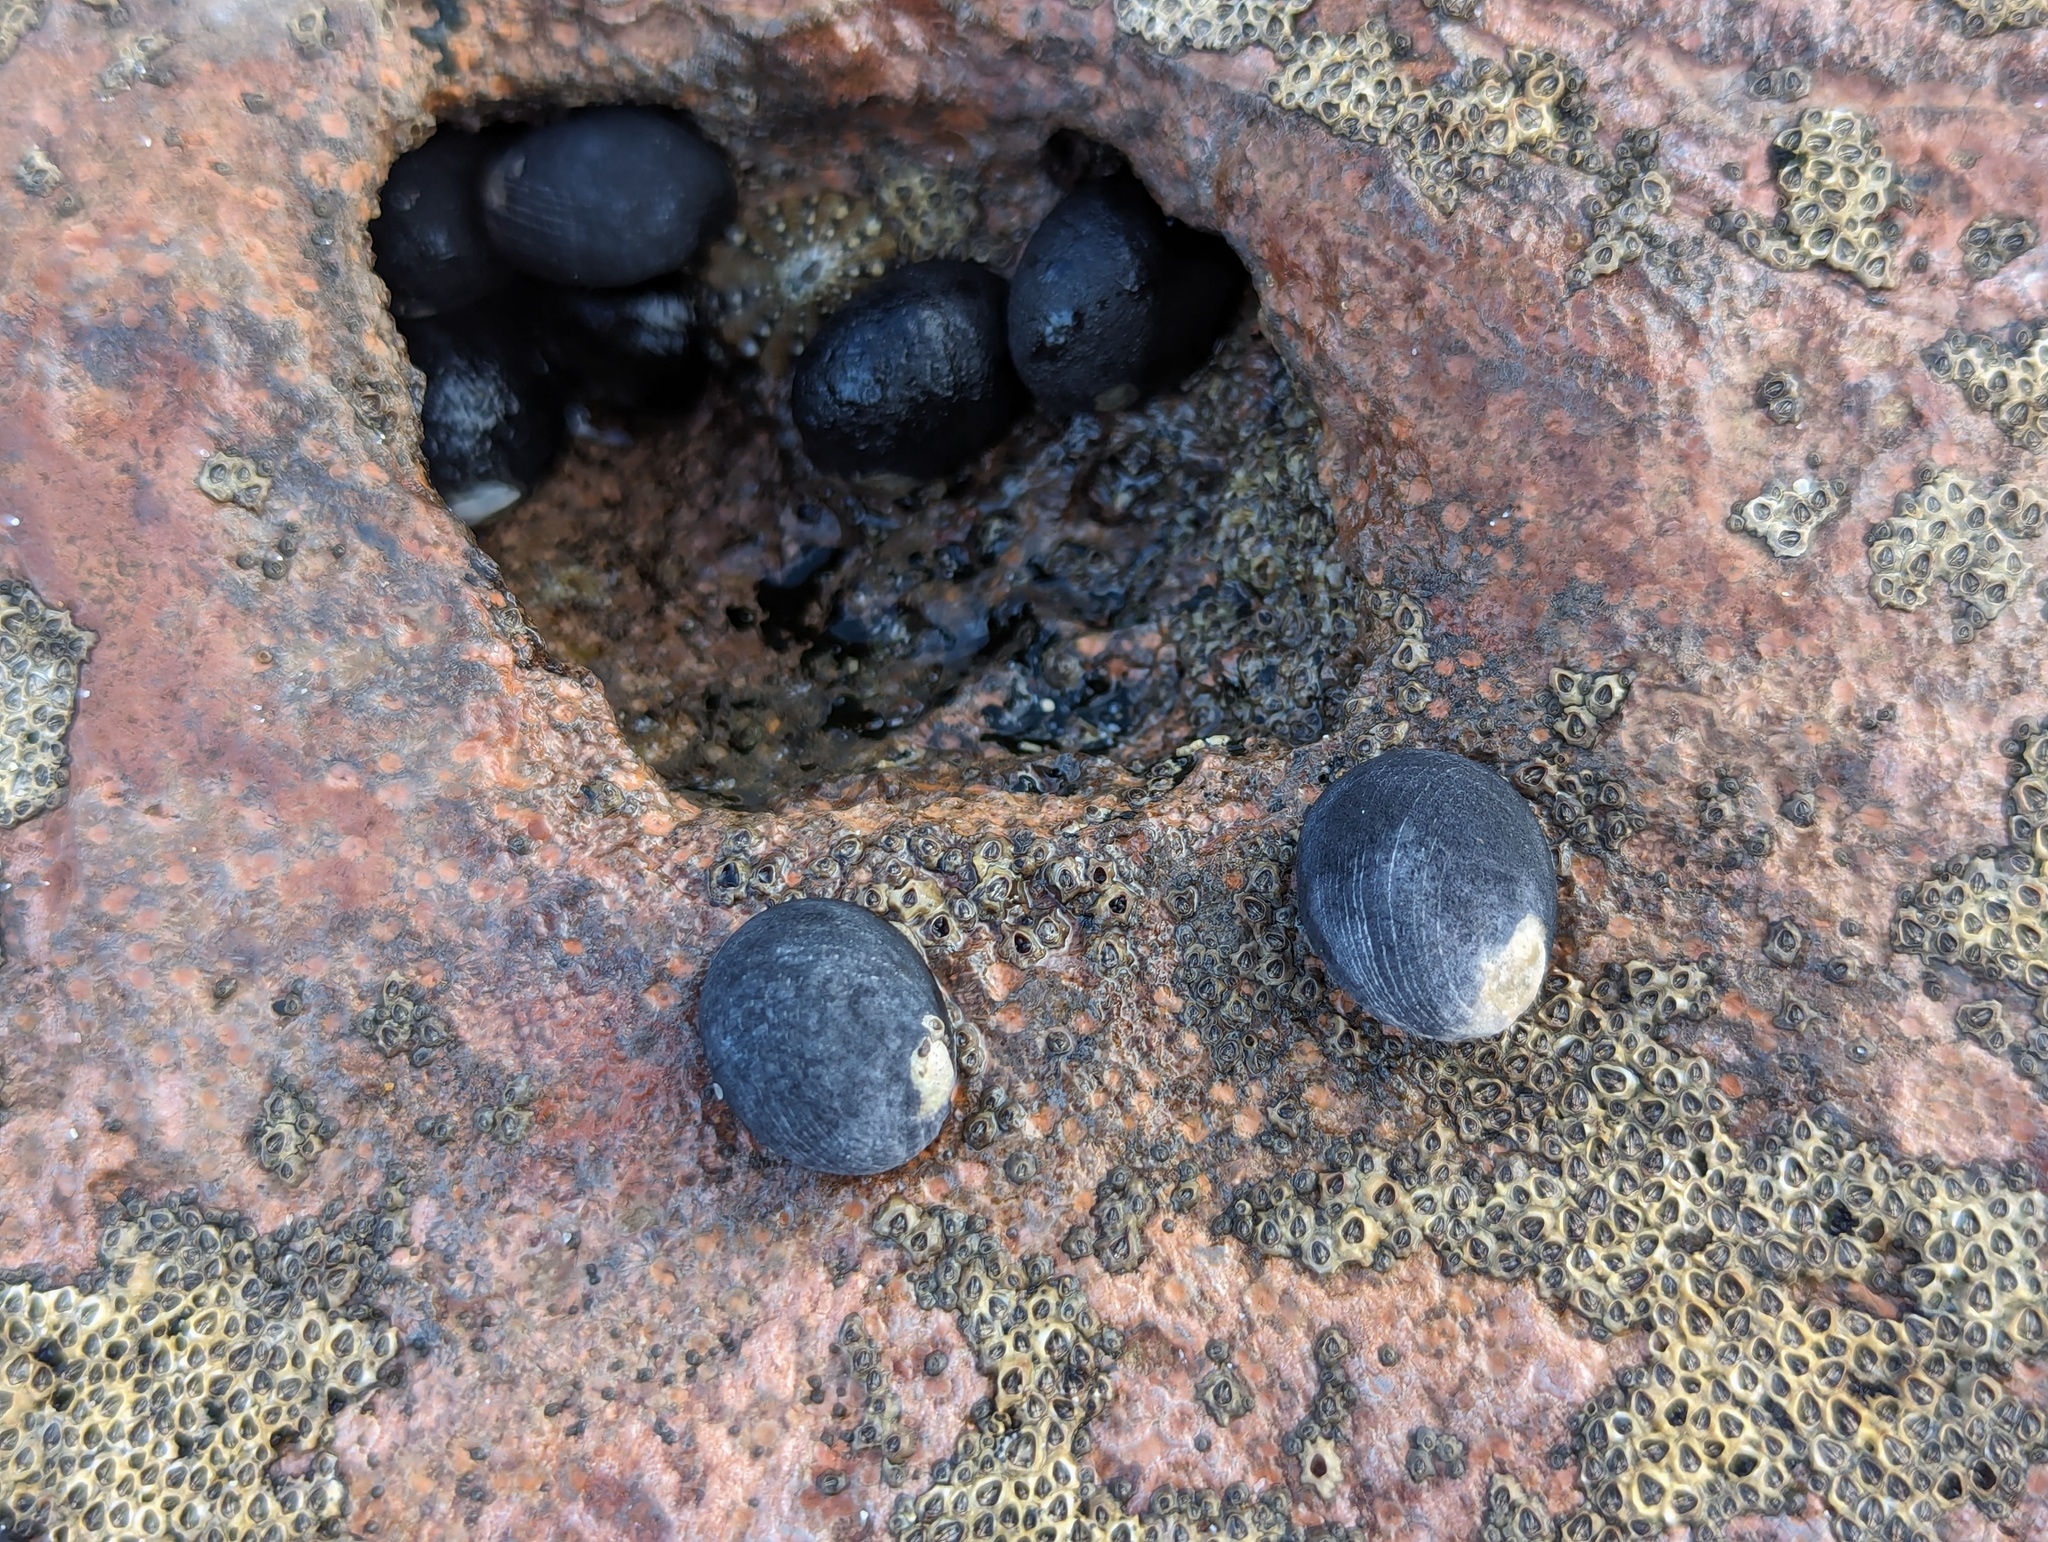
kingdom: Animalia
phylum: Mollusca
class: Gastropoda
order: Cycloneritida
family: Neritidae
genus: Nerita
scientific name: Nerita melanotragus
